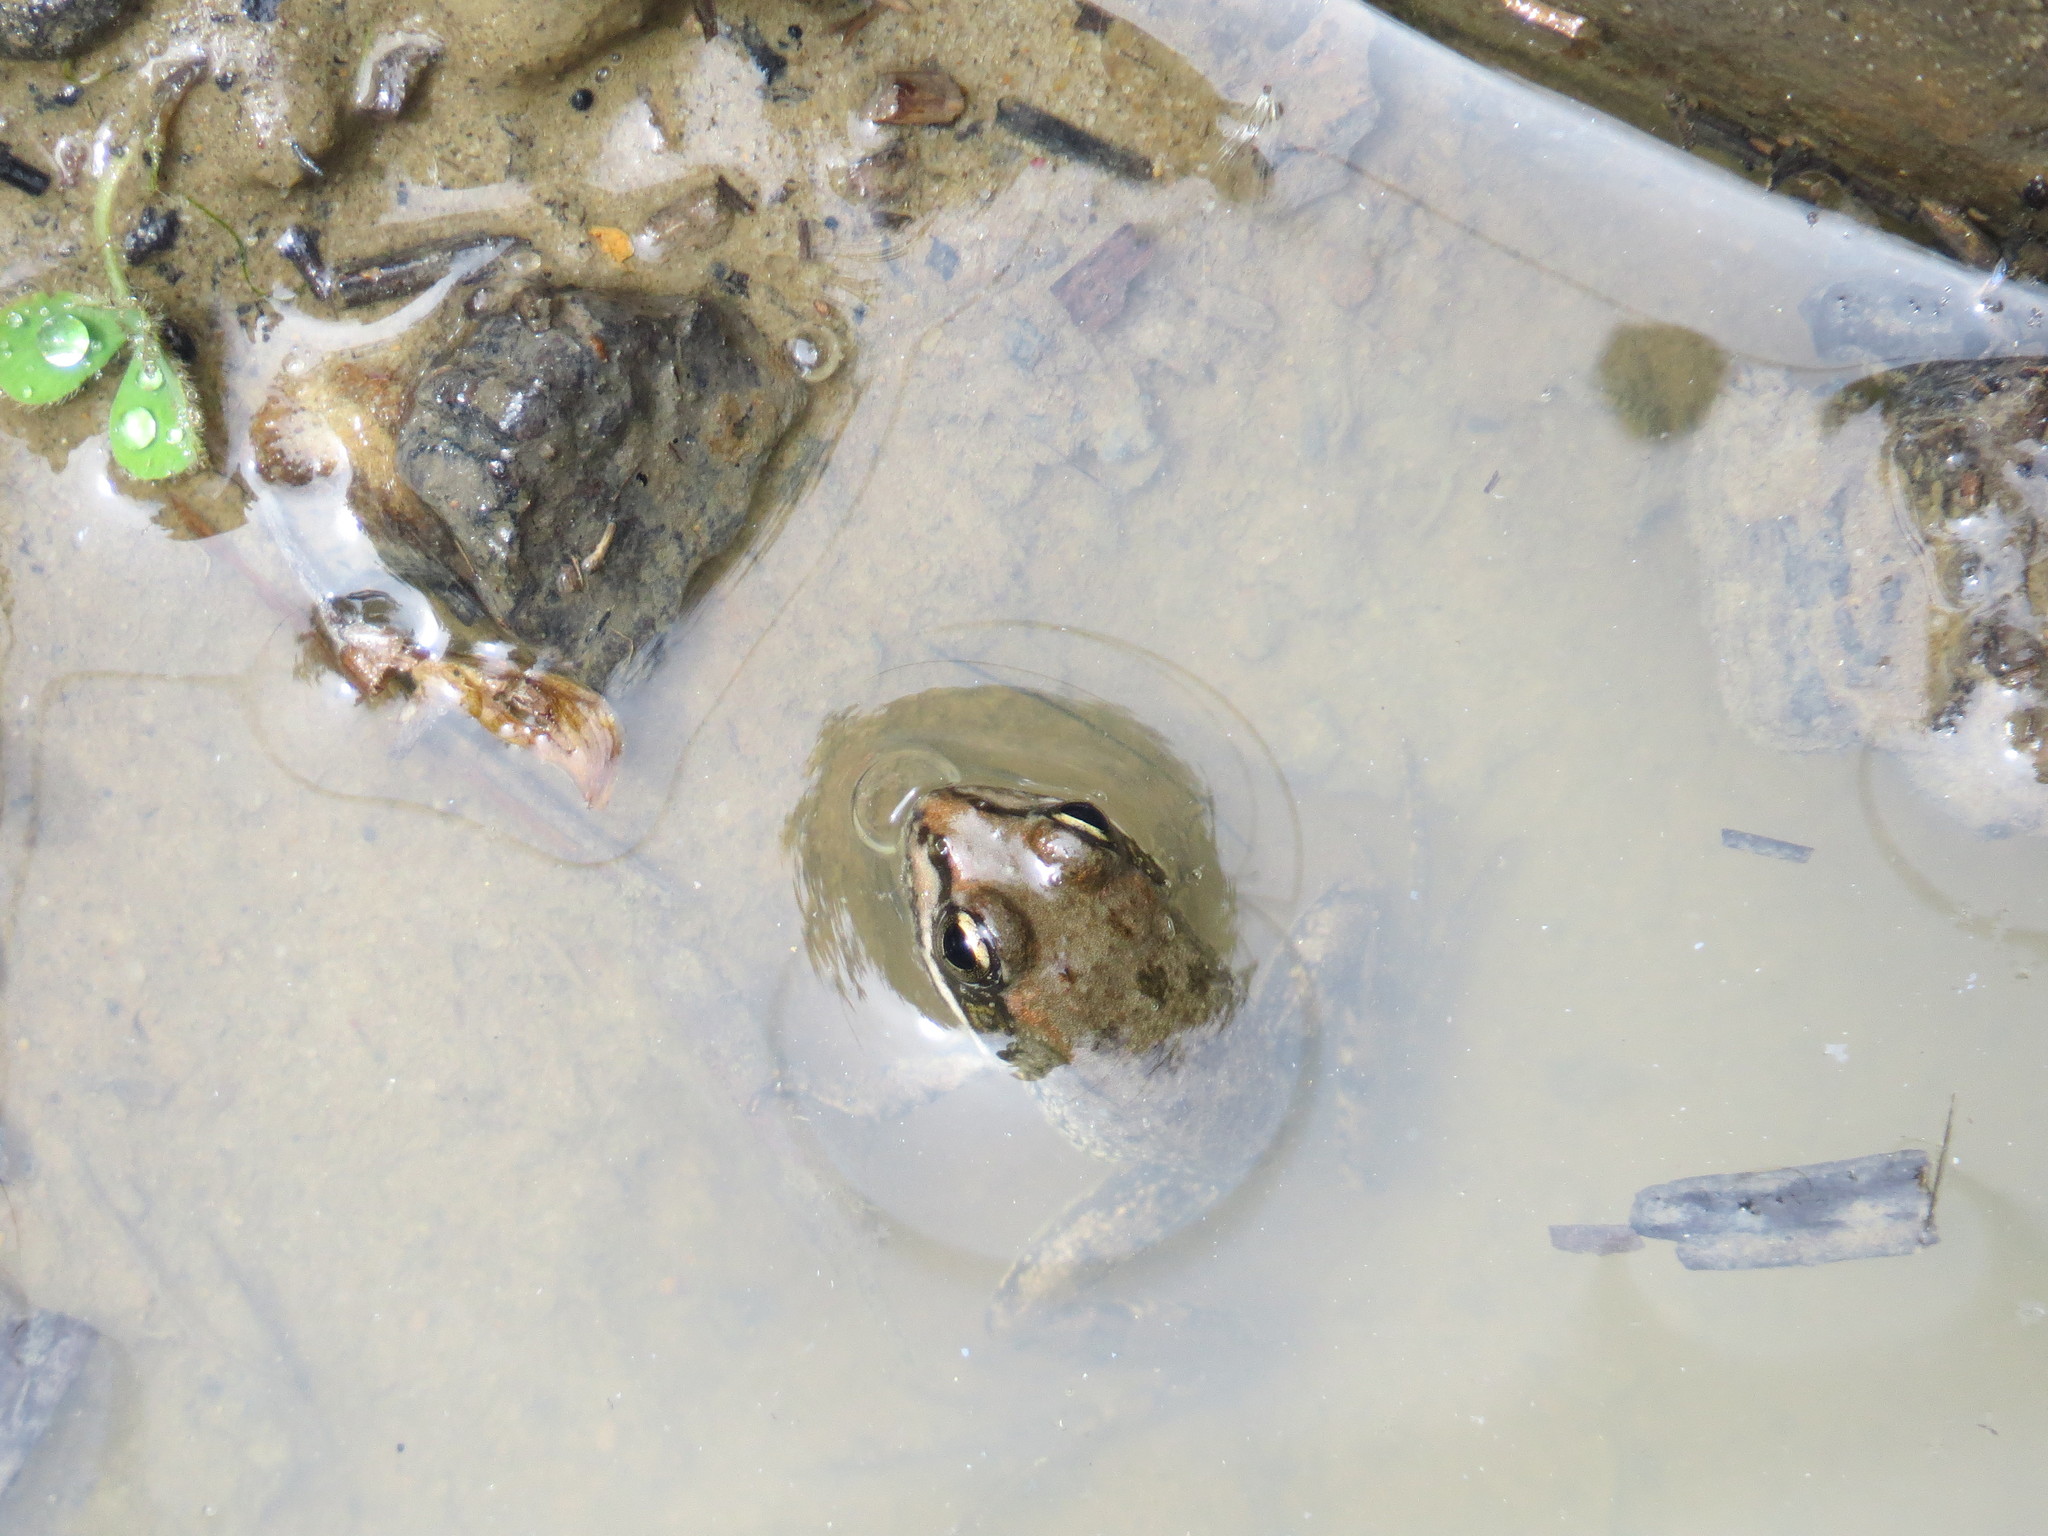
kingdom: Animalia
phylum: Chordata
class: Amphibia
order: Anura
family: Ranidae
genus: Pelophylax
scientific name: Pelophylax perezi
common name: Perez's frog
